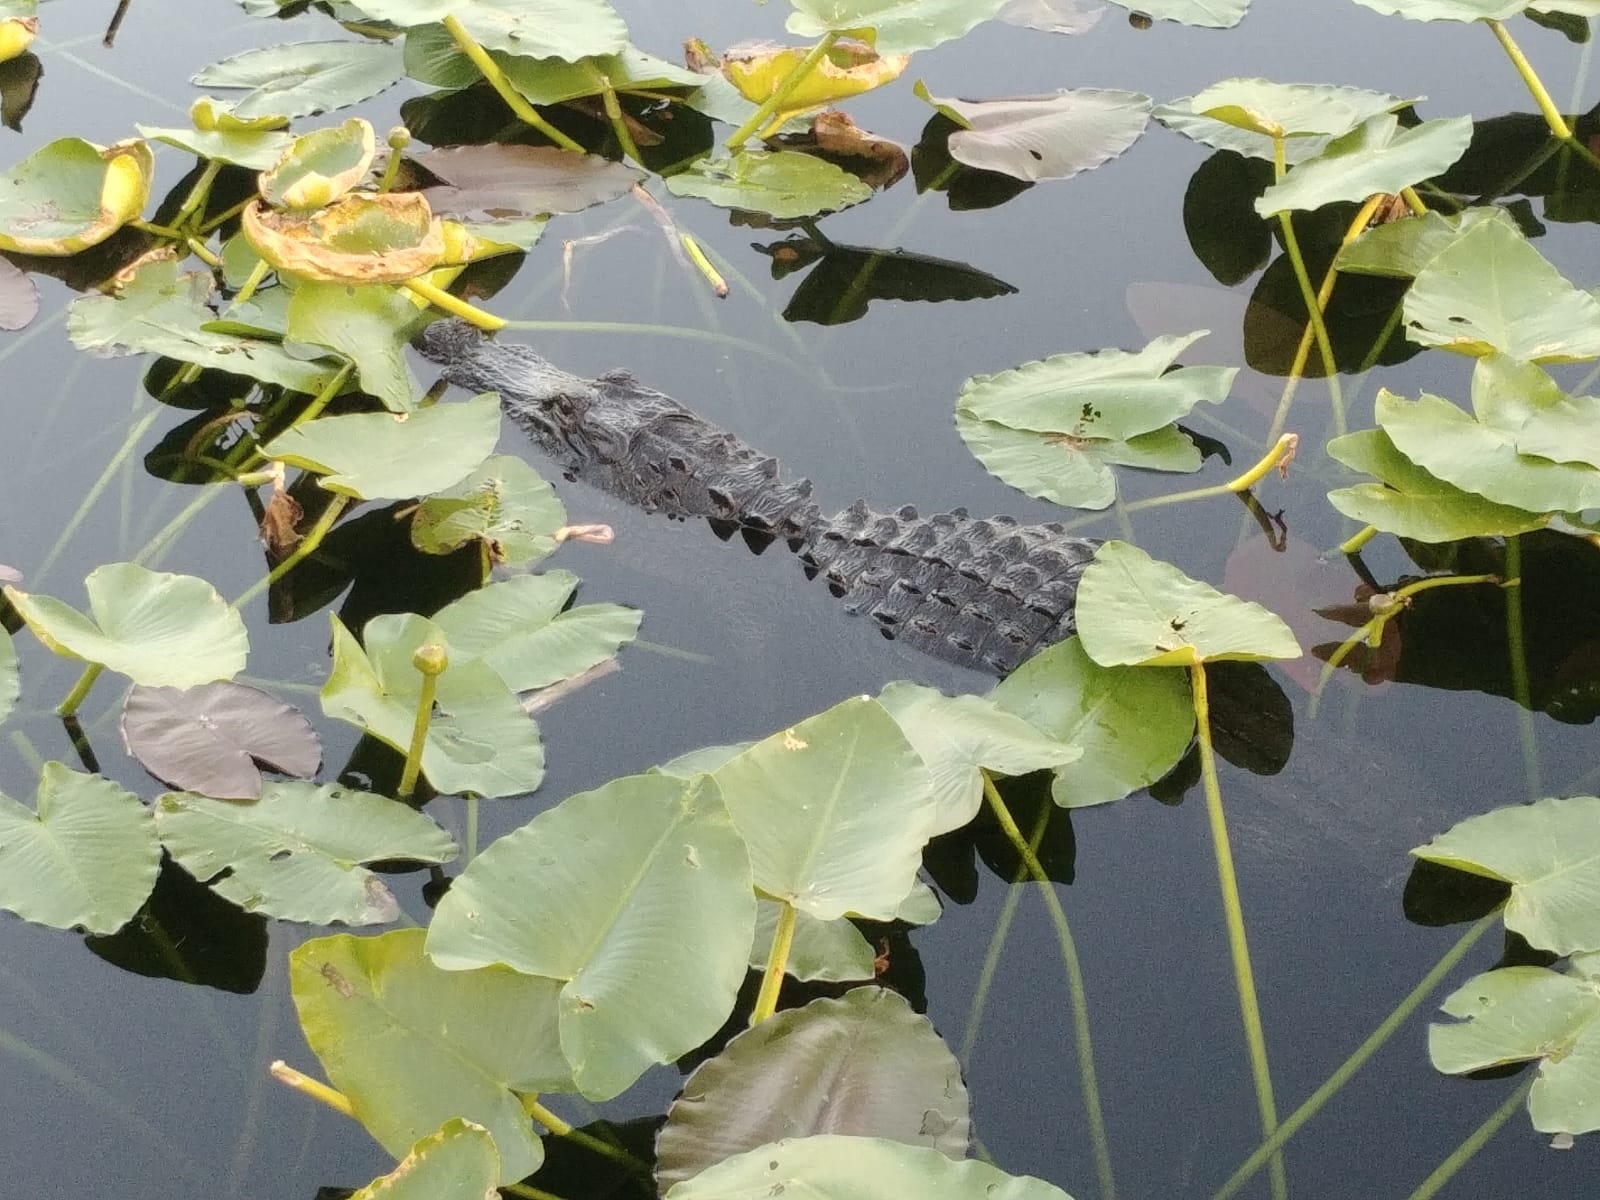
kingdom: Animalia
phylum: Chordata
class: Crocodylia
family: Alligatoridae
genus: Alligator
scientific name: Alligator mississippiensis
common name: American alligator
